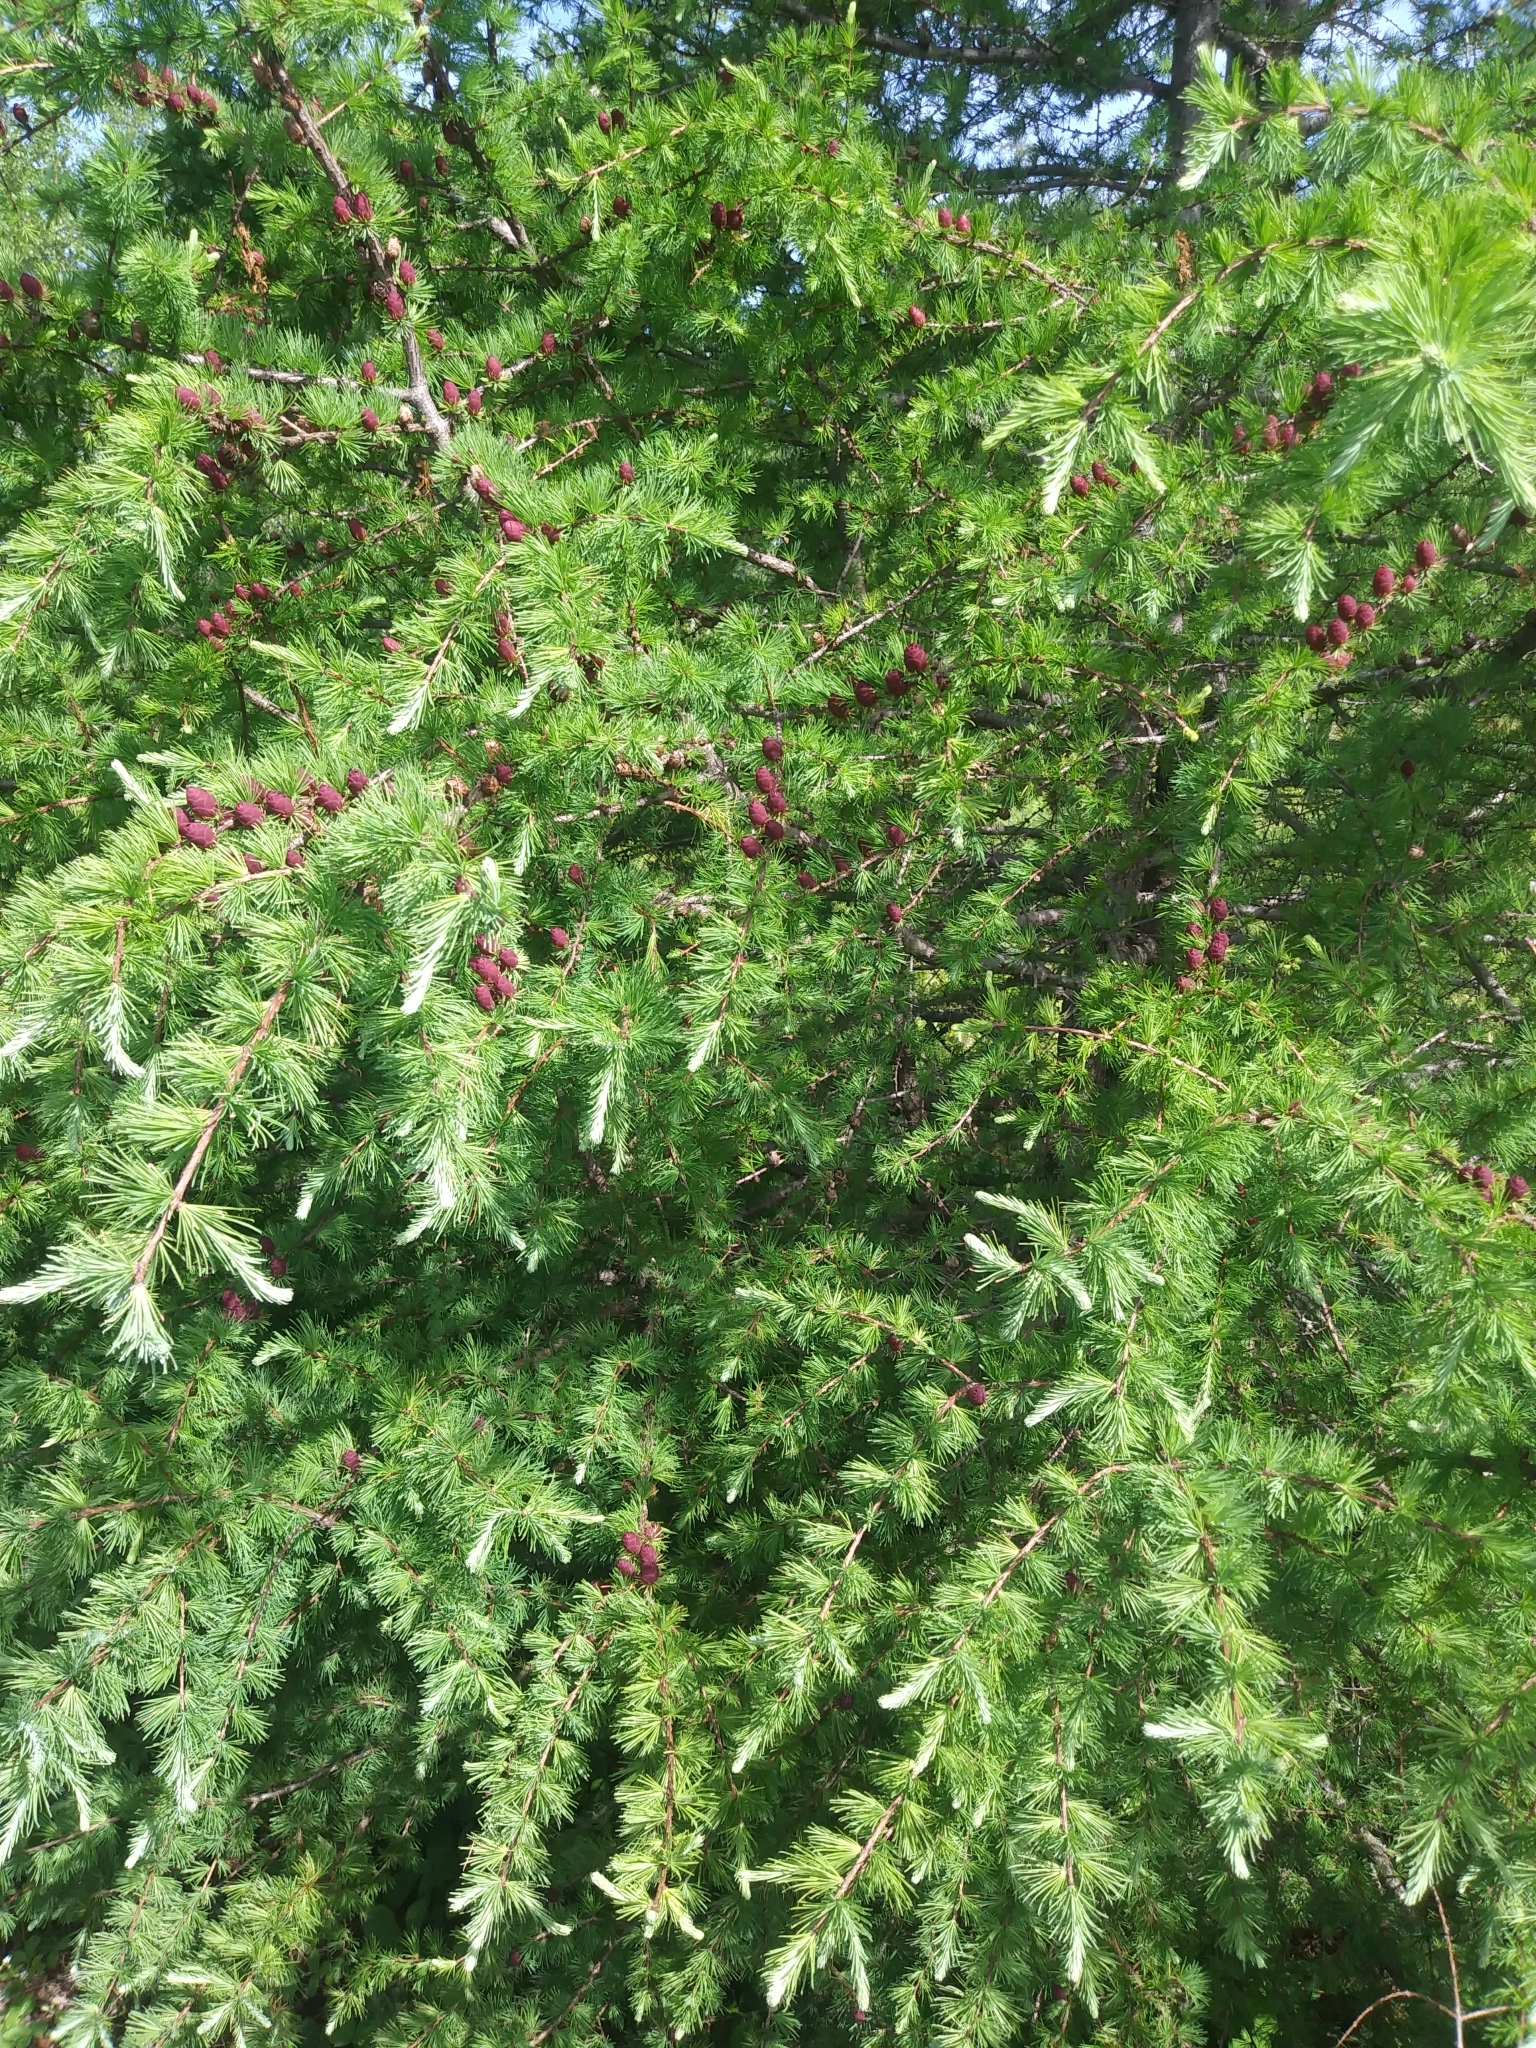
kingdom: Plantae
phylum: Tracheophyta
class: Pinopsida
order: Pinales
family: Pinaceae
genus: Larix
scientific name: Larix laricina
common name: American larch
